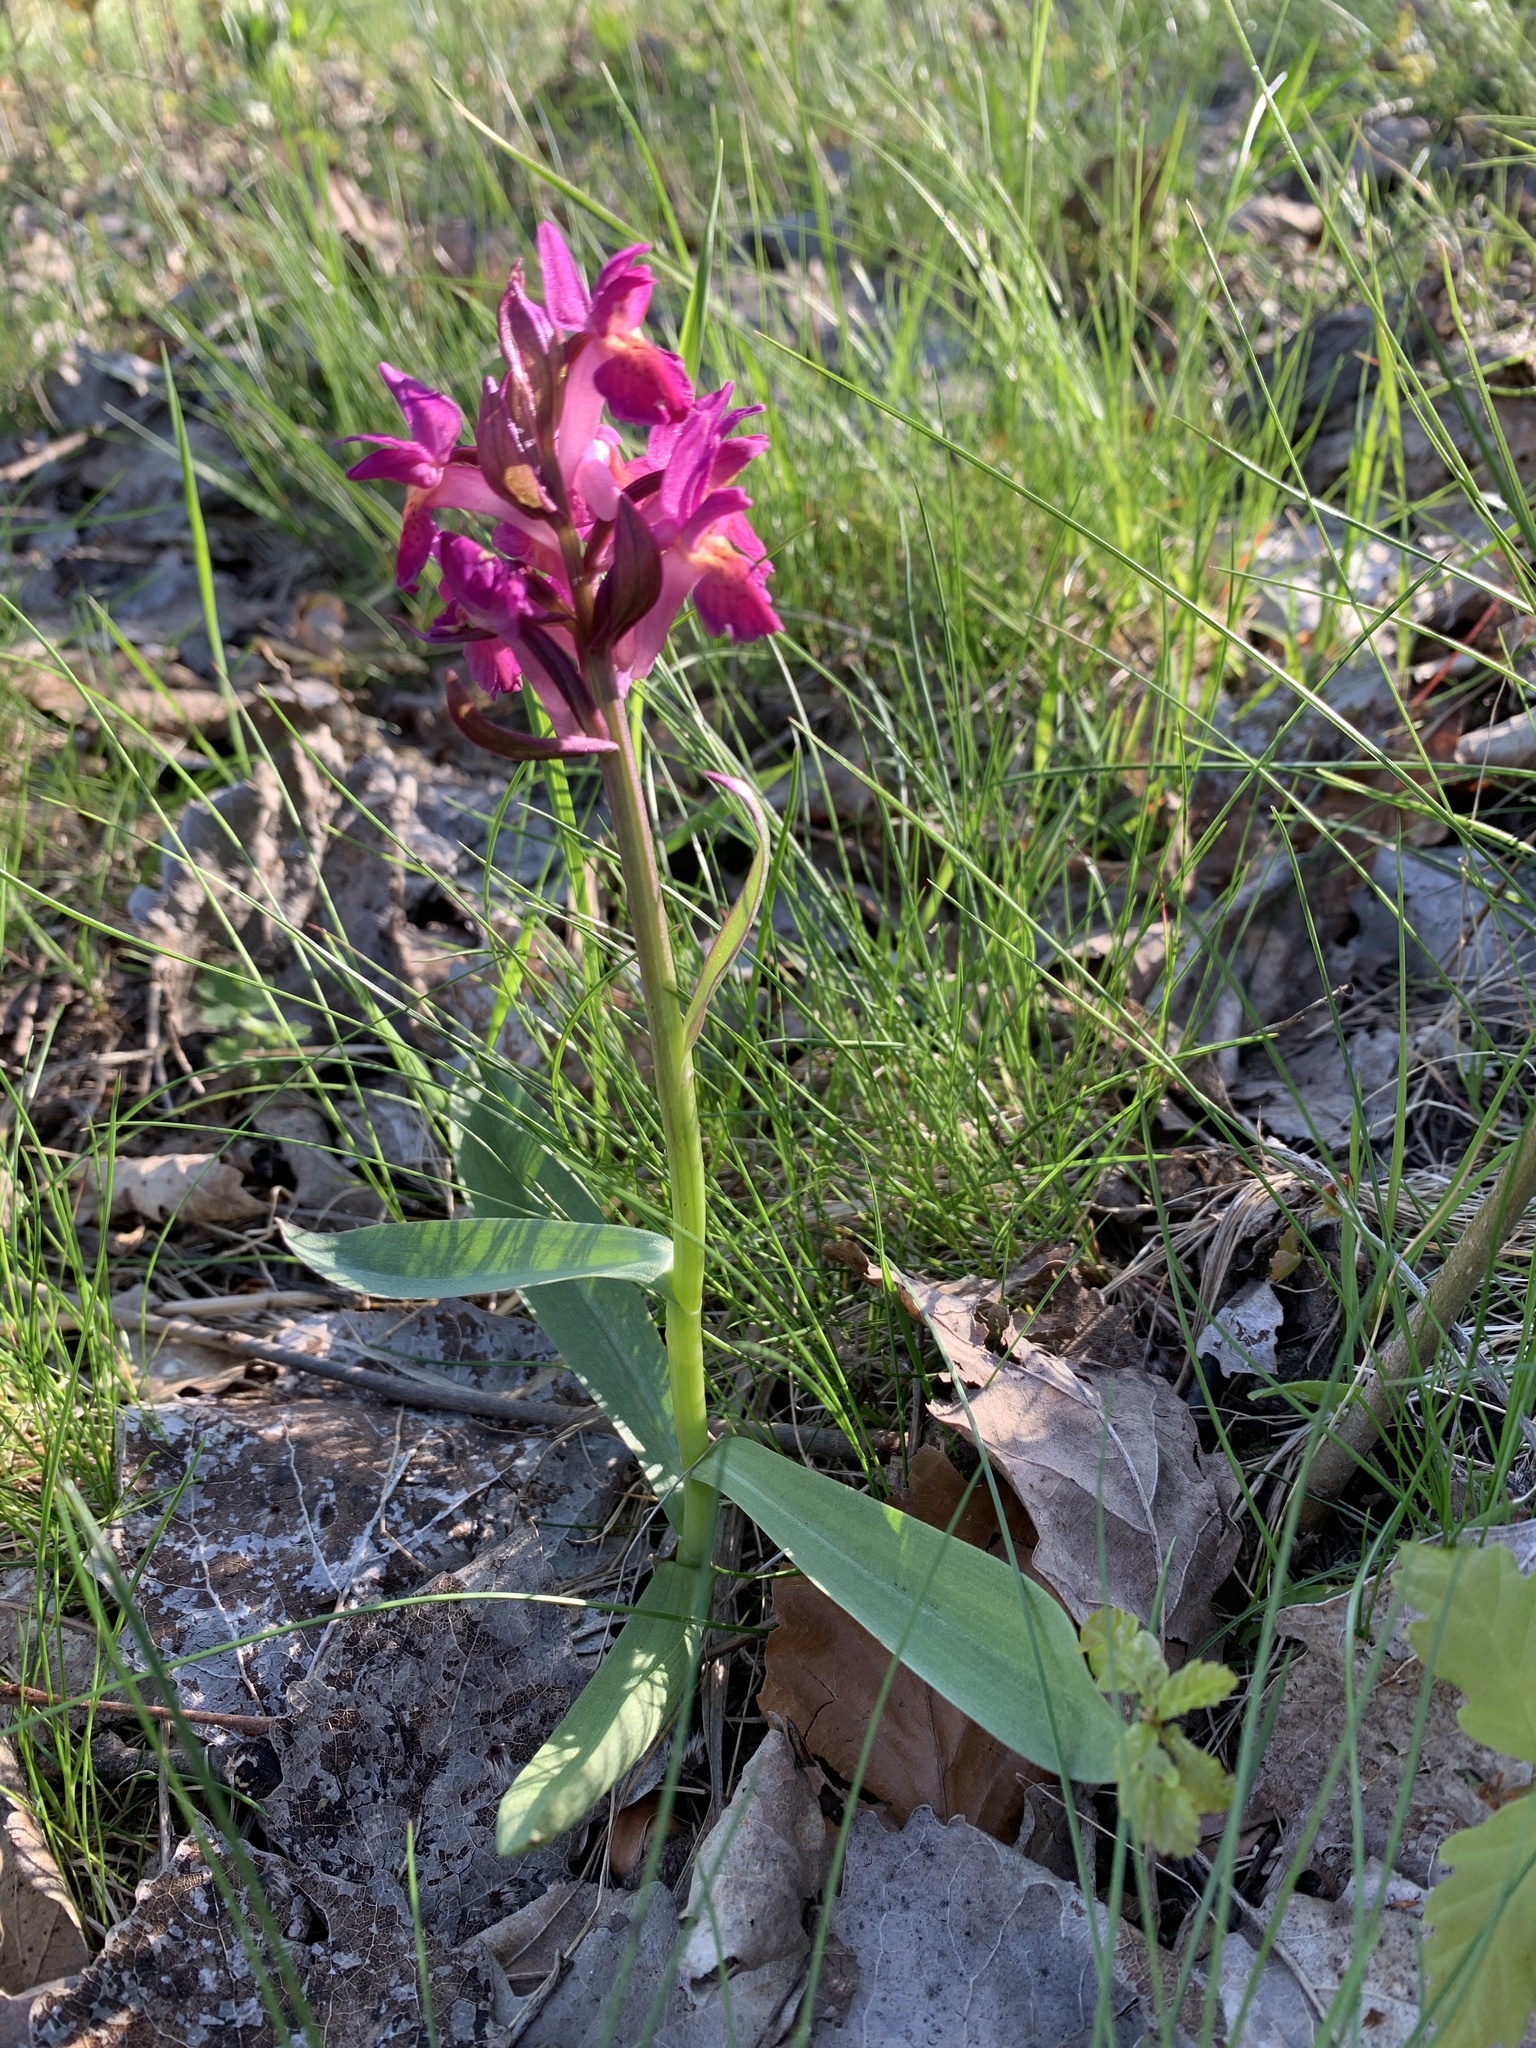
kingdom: Plantae
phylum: Tracheophyta
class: Liliopsida
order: Asparagales
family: Orchidaceae
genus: Dactylorhiza
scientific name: Dactylorhiza sambucina
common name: Elder-flowered orchid
